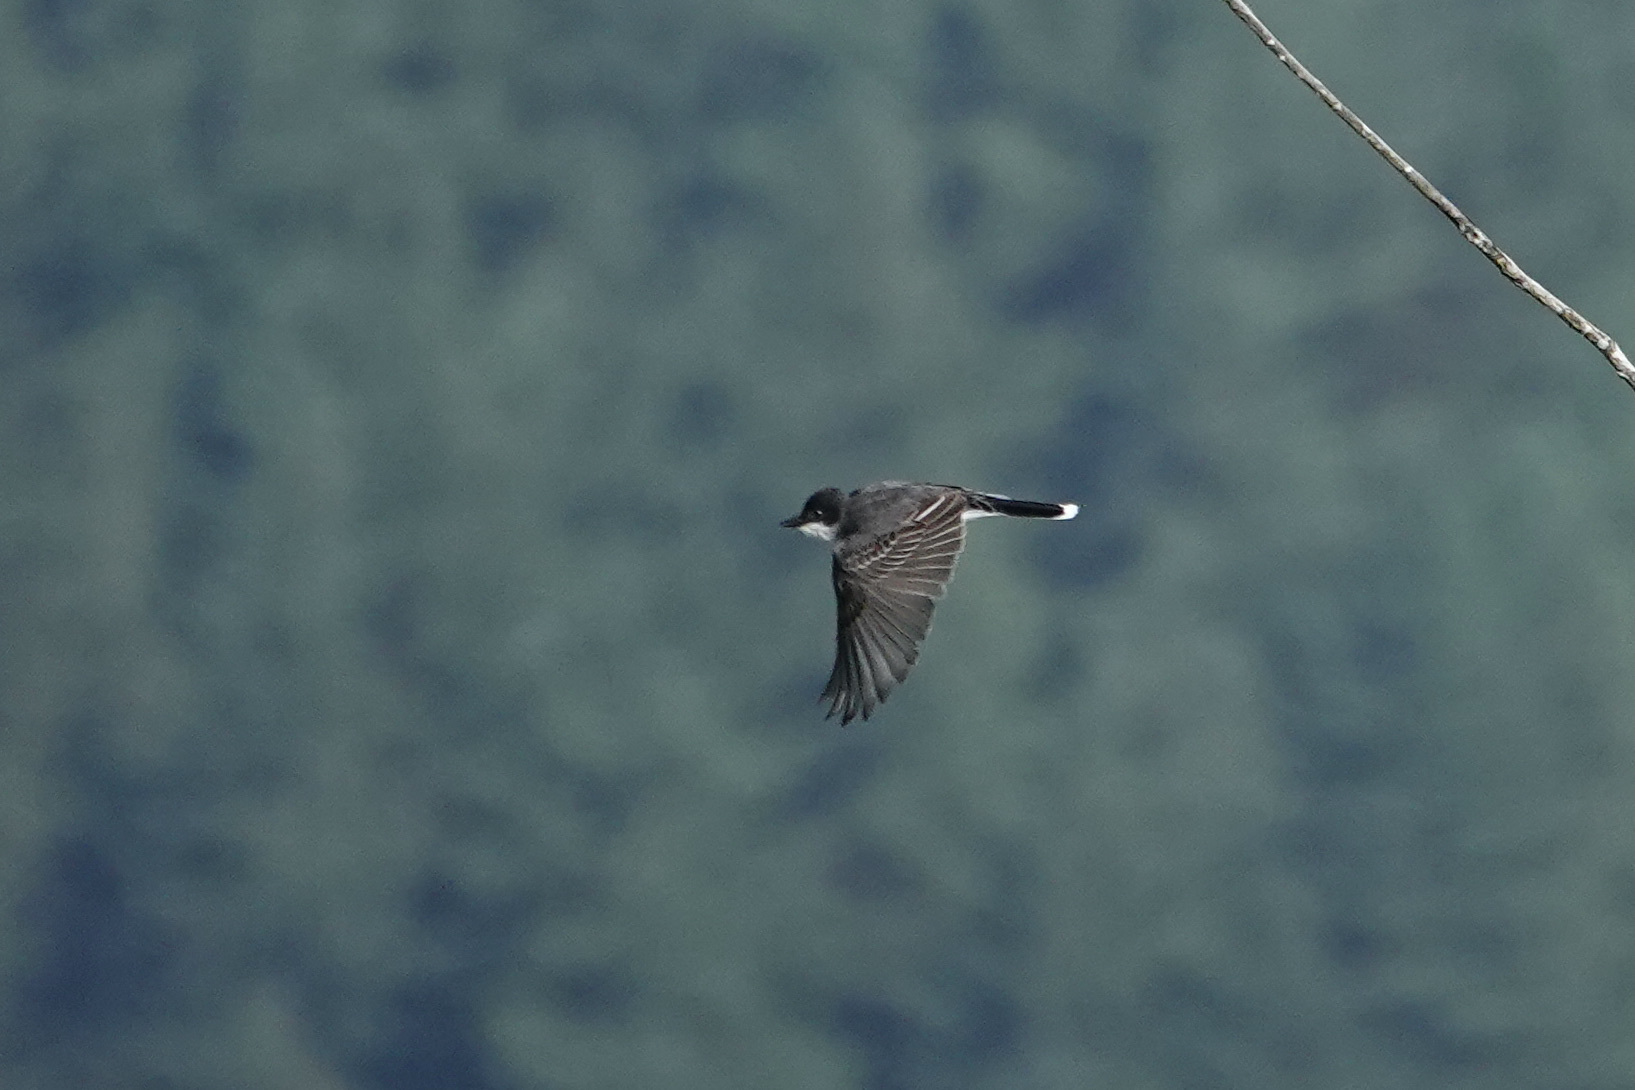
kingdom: Animalia
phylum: Chordata
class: Aves
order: Passeriformes
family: Tyrannidae
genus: Tyrannus
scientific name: Tyrannus tyrannus
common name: Eastern kingbird
